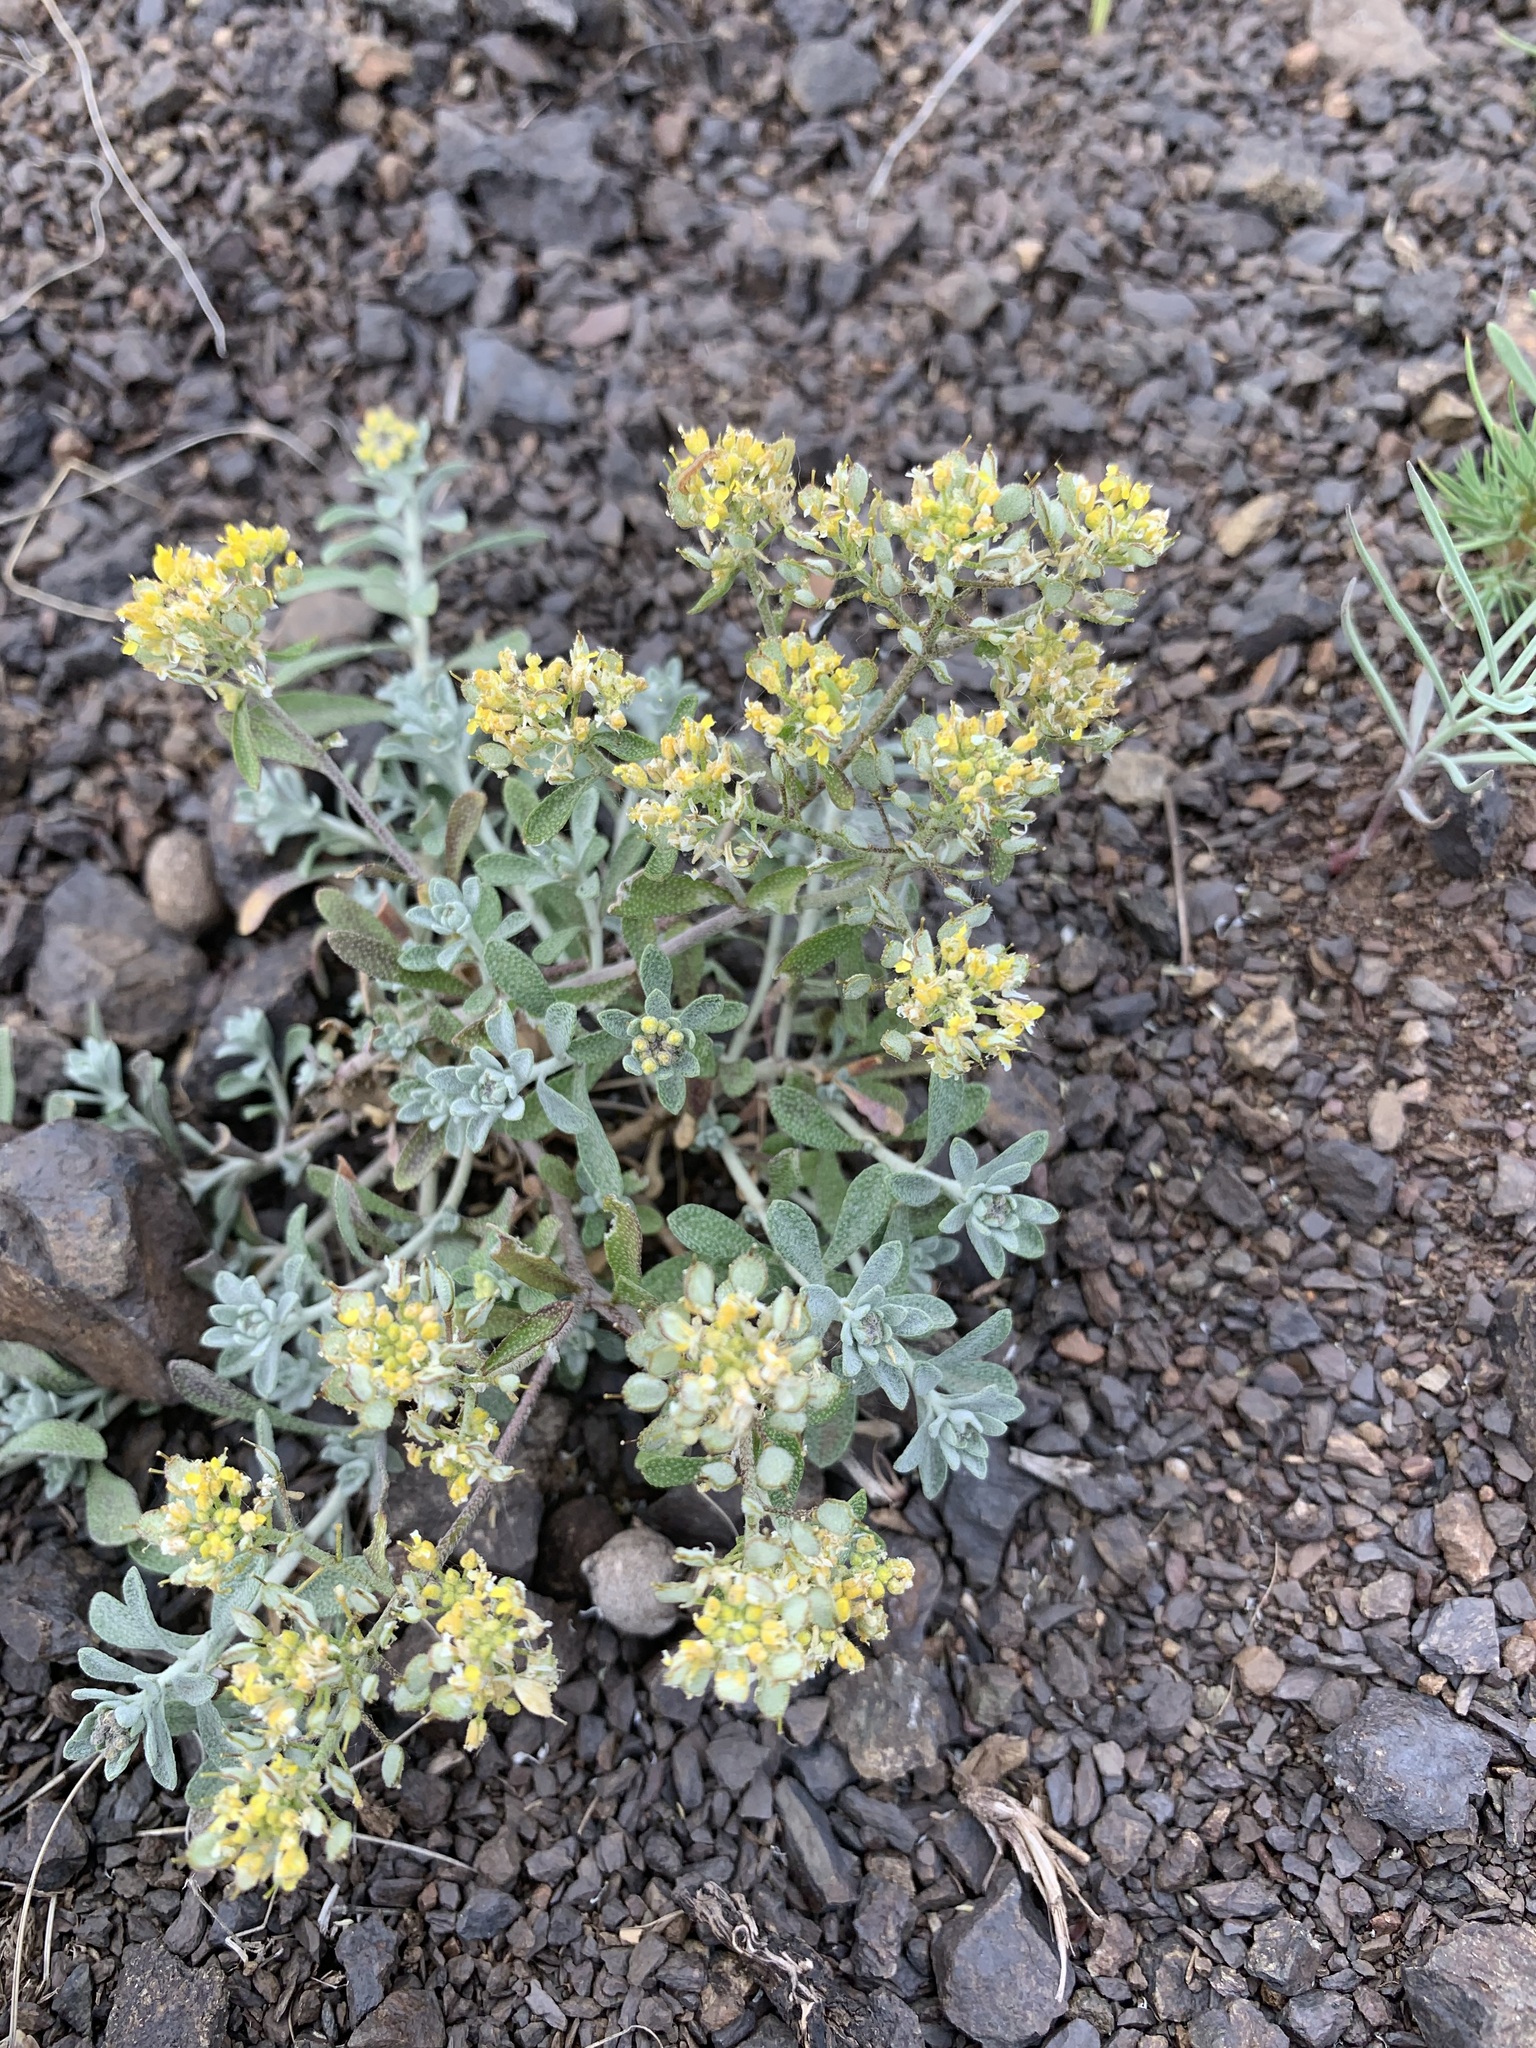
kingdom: Plantae
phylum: Tracheophyta
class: Magnoliopsida
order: Brassicales
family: Brassicaceae
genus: Odontarrhena
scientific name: Odontarrhena tortuosa
